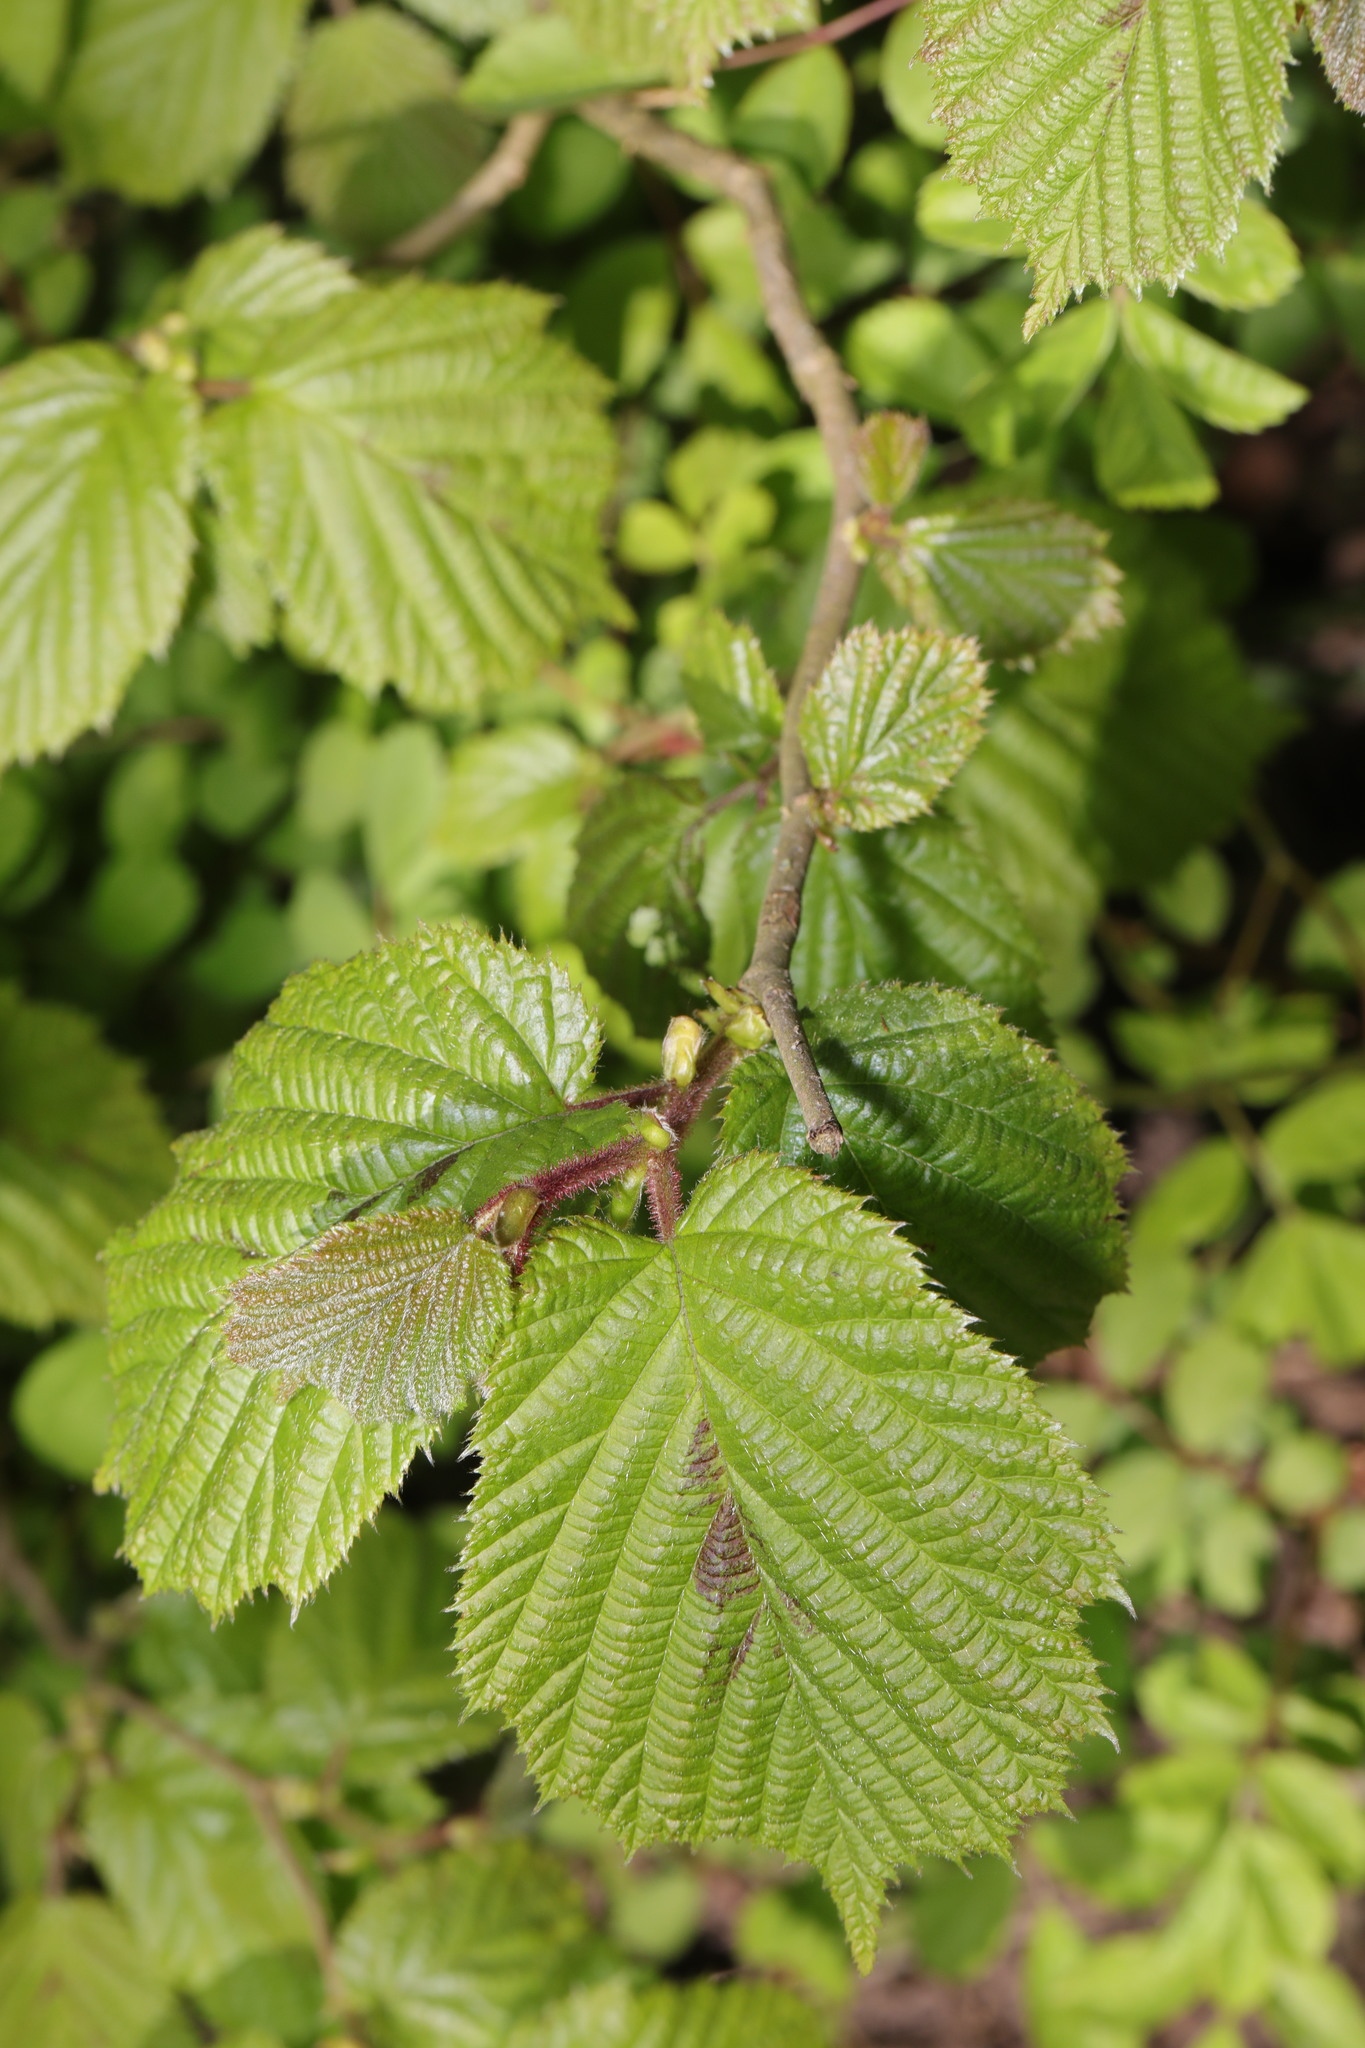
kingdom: Plantae
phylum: Tracheophyta
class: Magnoliopsida
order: Fagales
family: Betulaceae
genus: Corylus
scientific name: Corylus avellana
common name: European hazel
